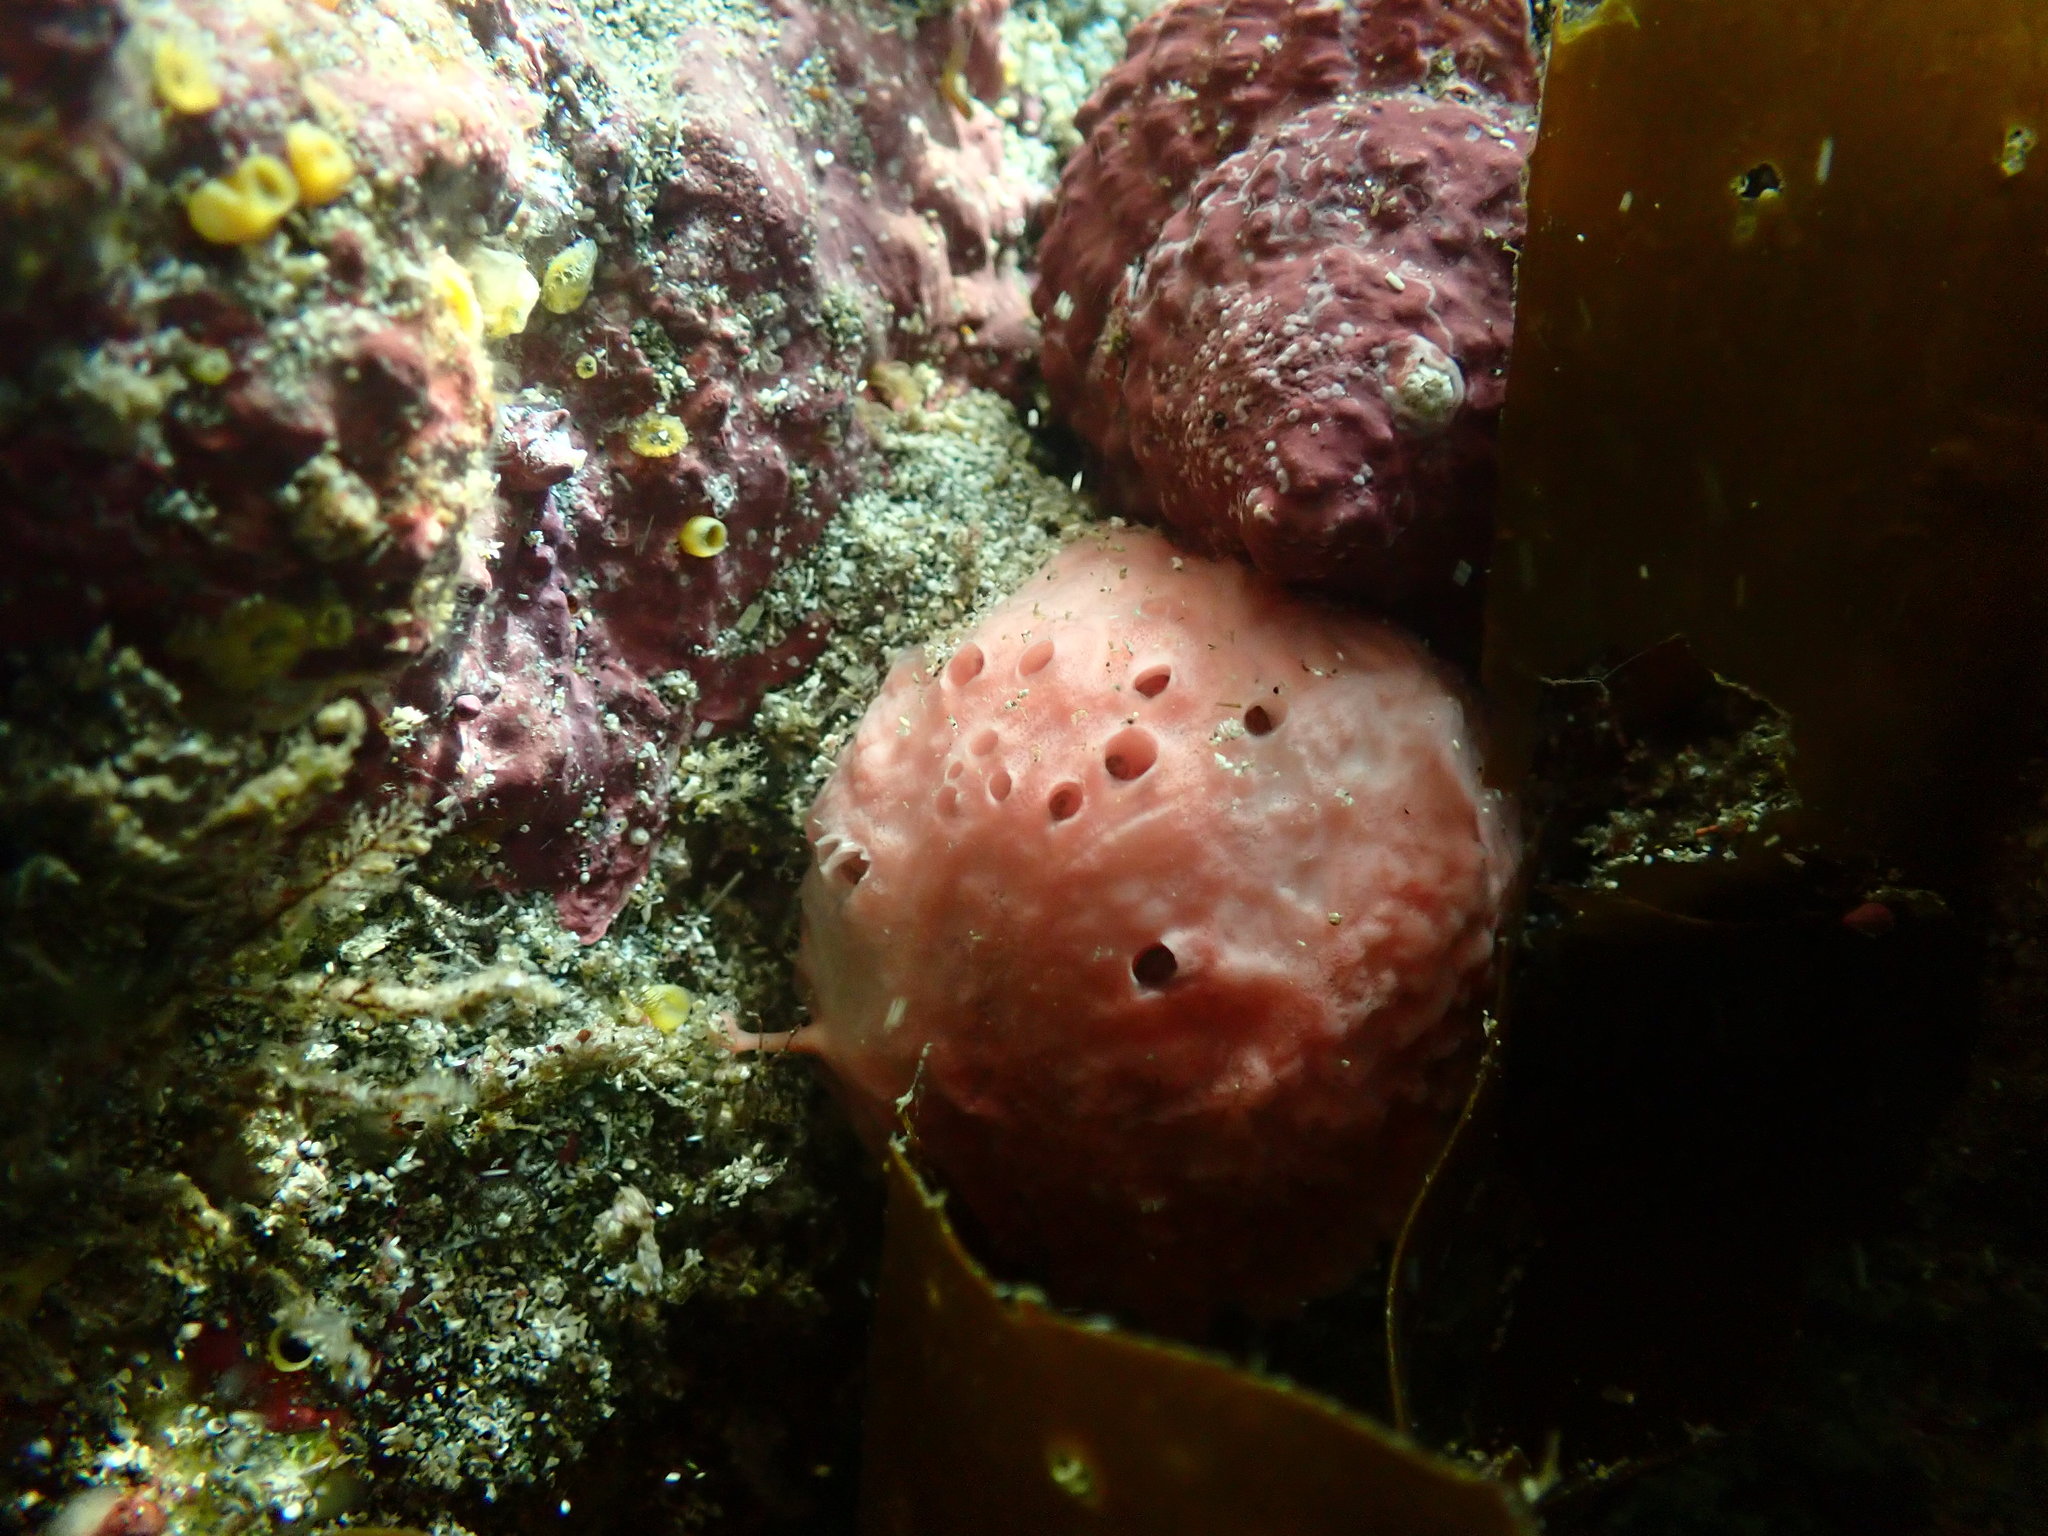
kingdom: Animalia
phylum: Porifera
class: Demospongiae
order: Tethyida
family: Tethyidae
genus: Tethya
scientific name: Tethya bergquistae
